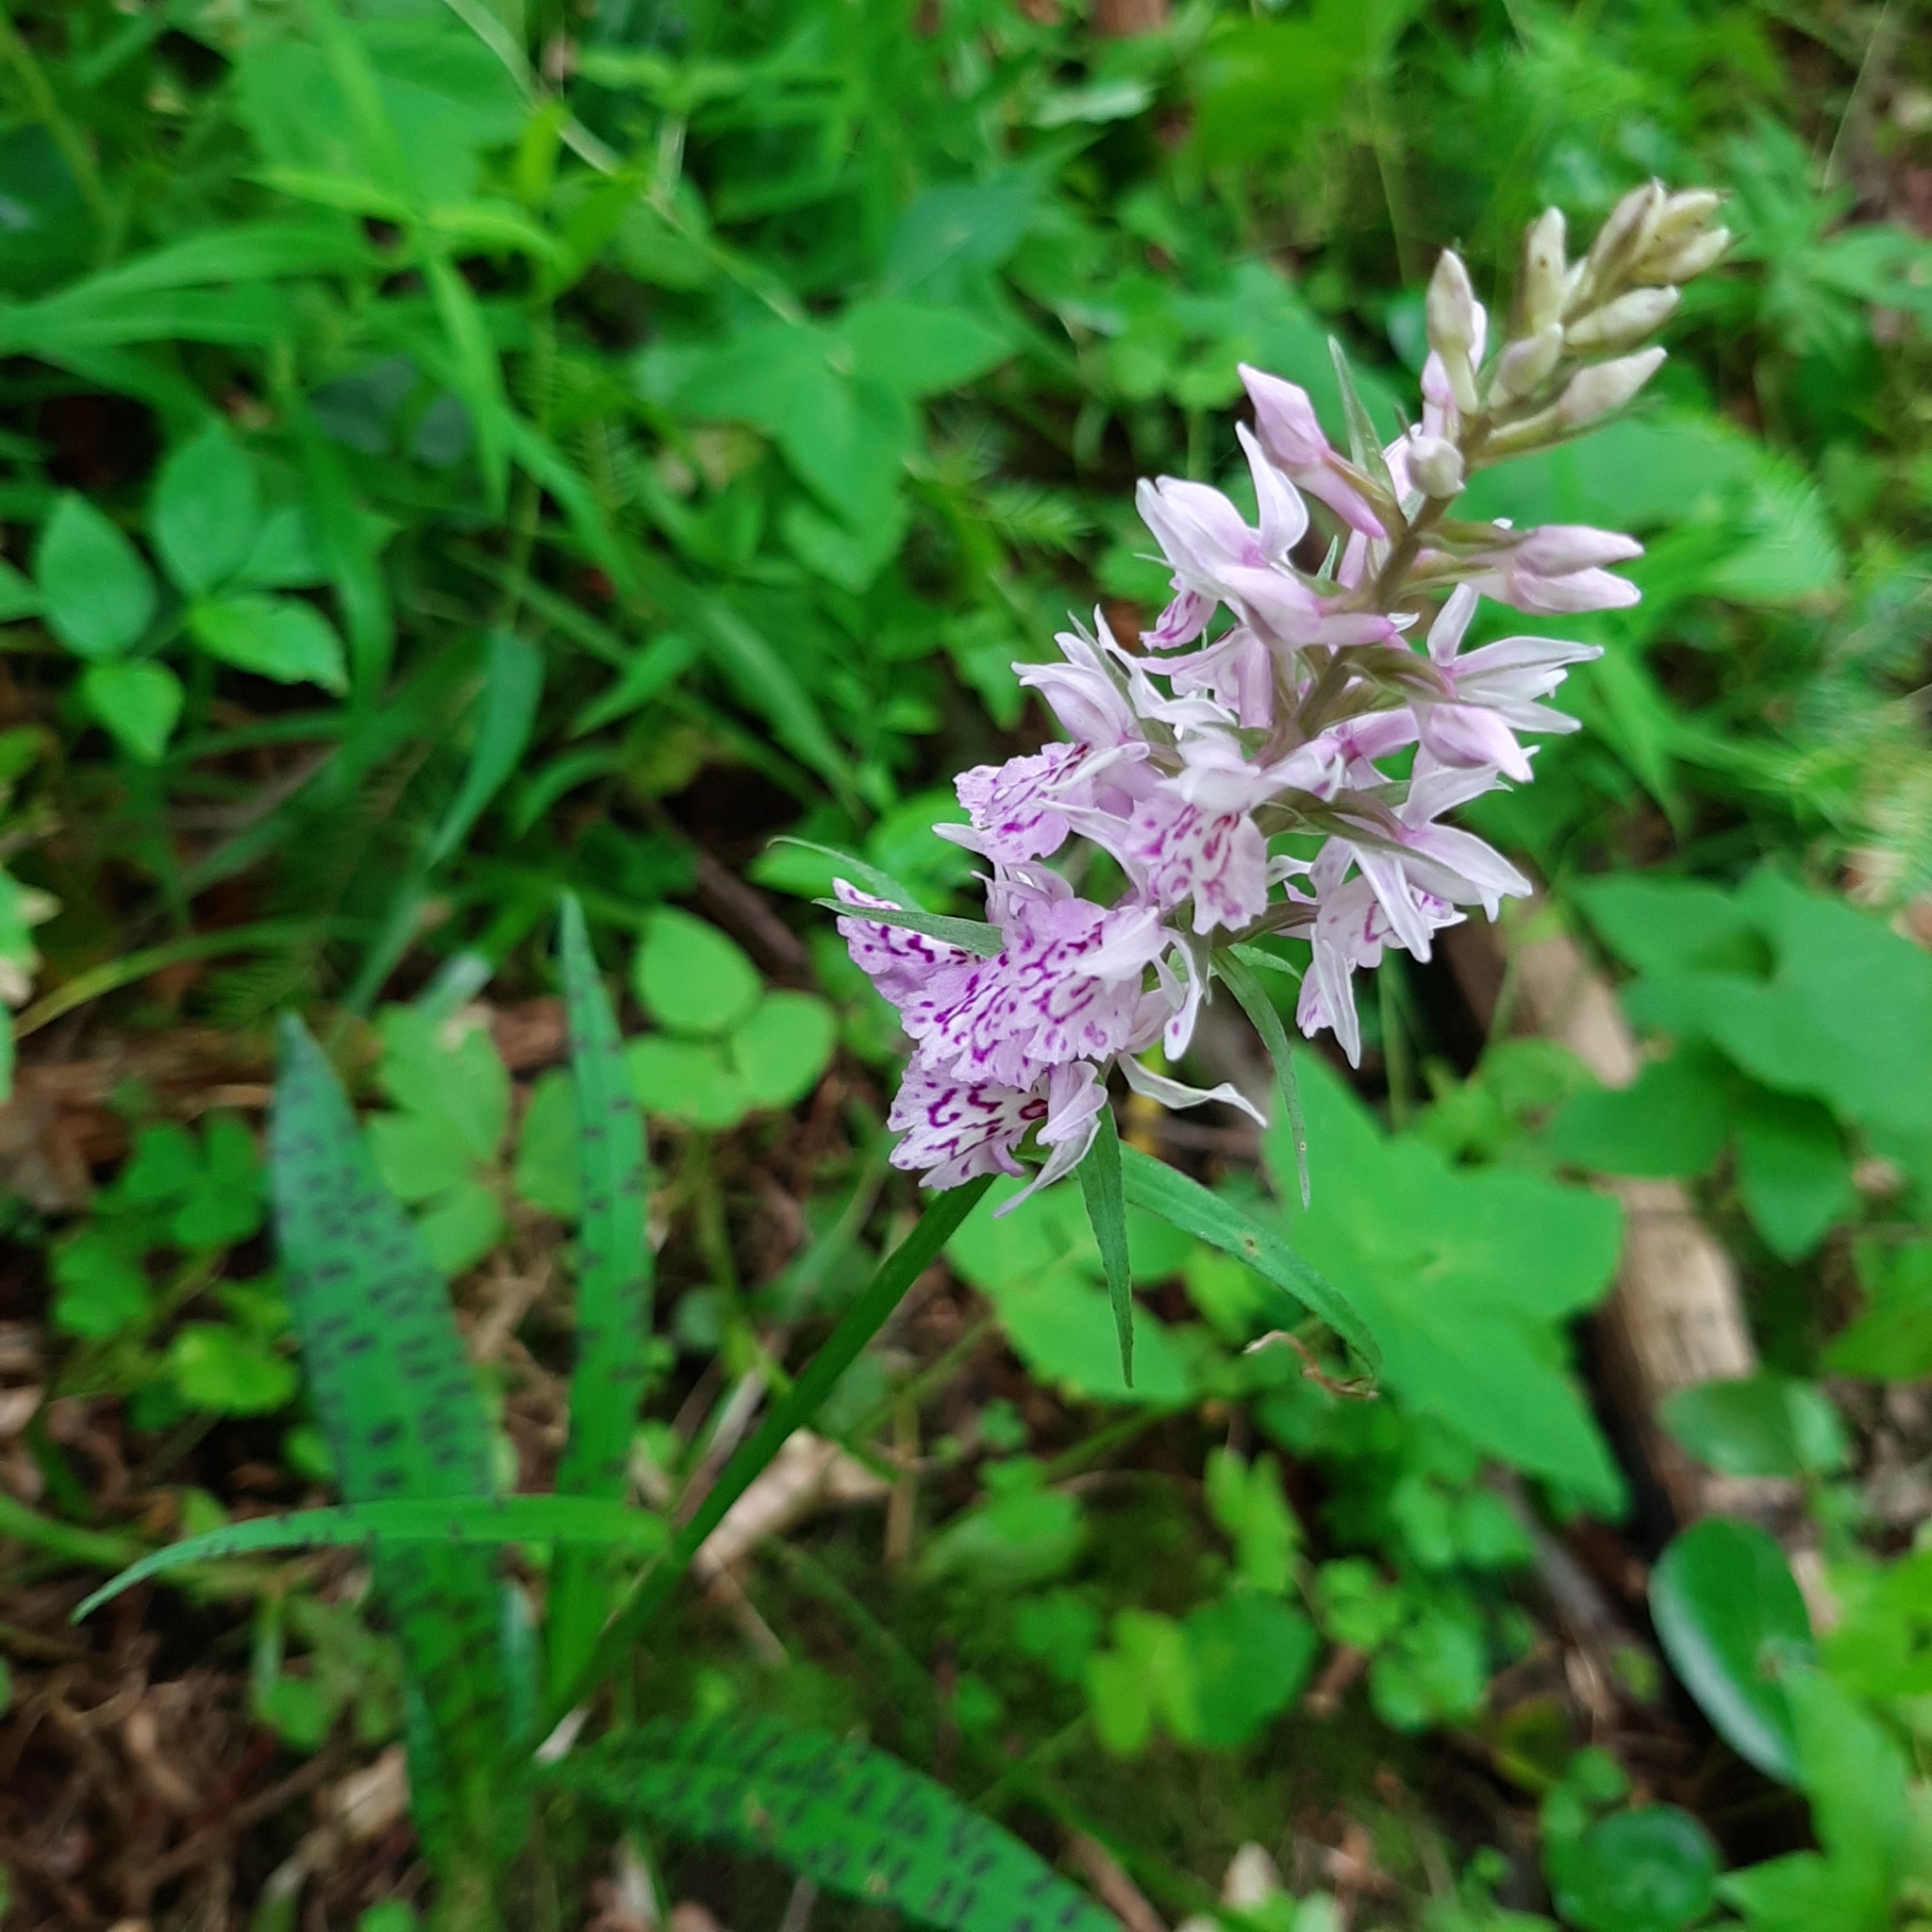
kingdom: Plantae
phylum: Tracheophyta
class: Liliopsida
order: Asparagales
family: Orchidaceae
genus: Dactylorhiza
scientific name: Dactylorhiza maculata
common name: Heath spotted-orchid
